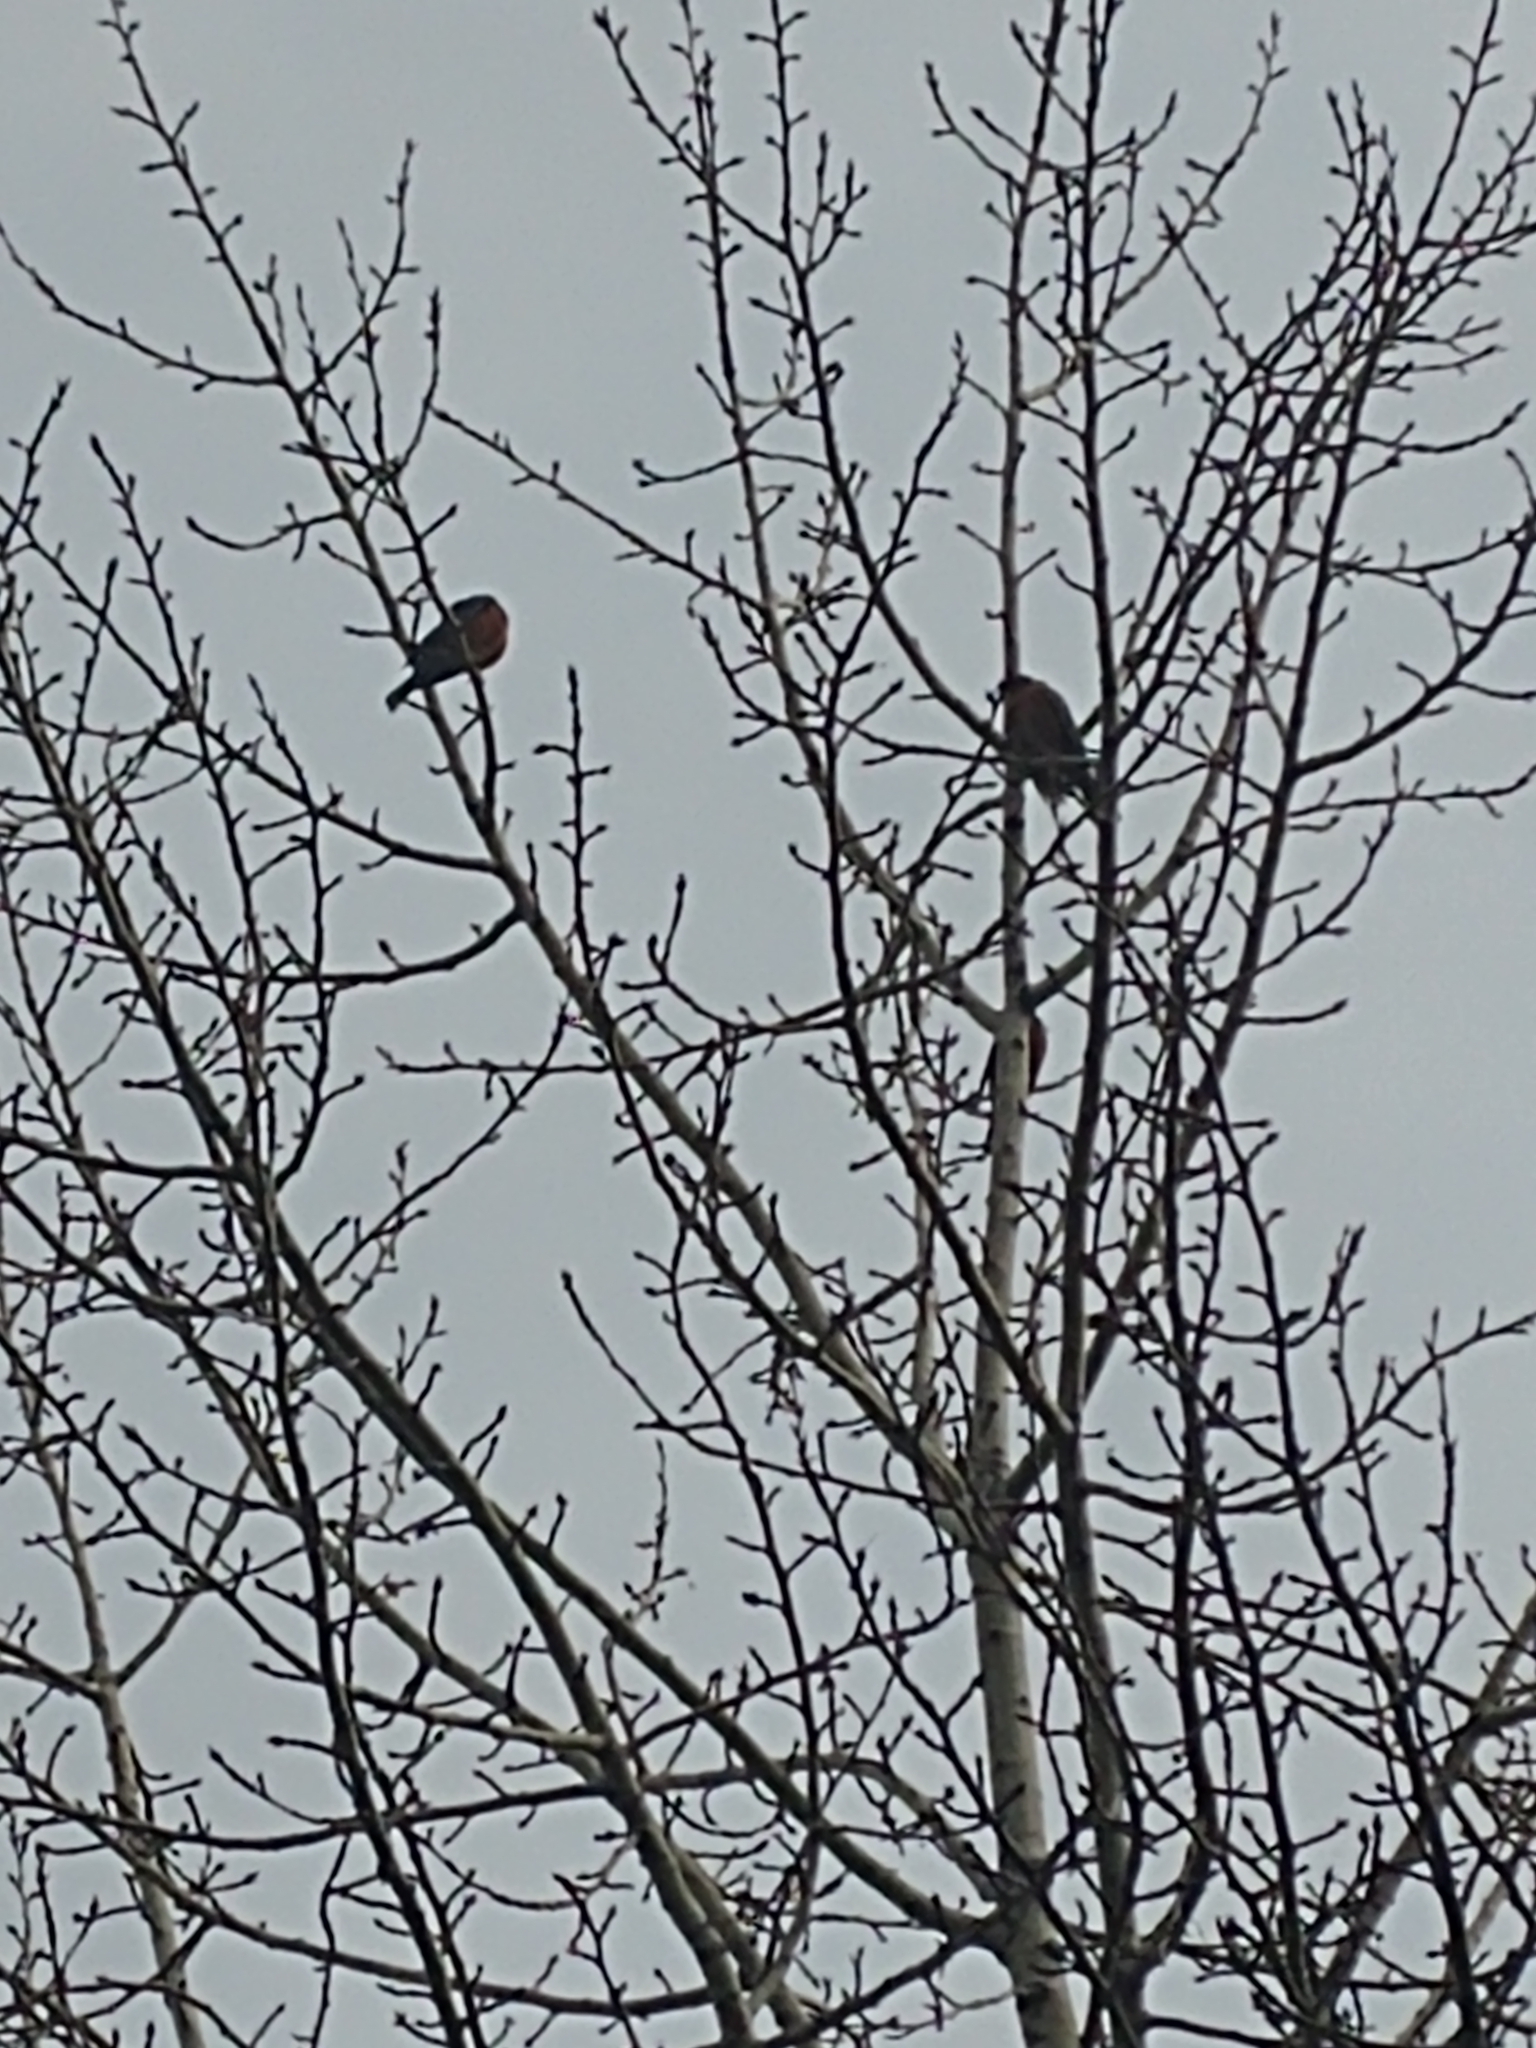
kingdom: Animalia
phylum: Chordata
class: Aves
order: Passeriformes
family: Turdidae
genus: Turdus
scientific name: Turdus migratorius
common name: American robin
